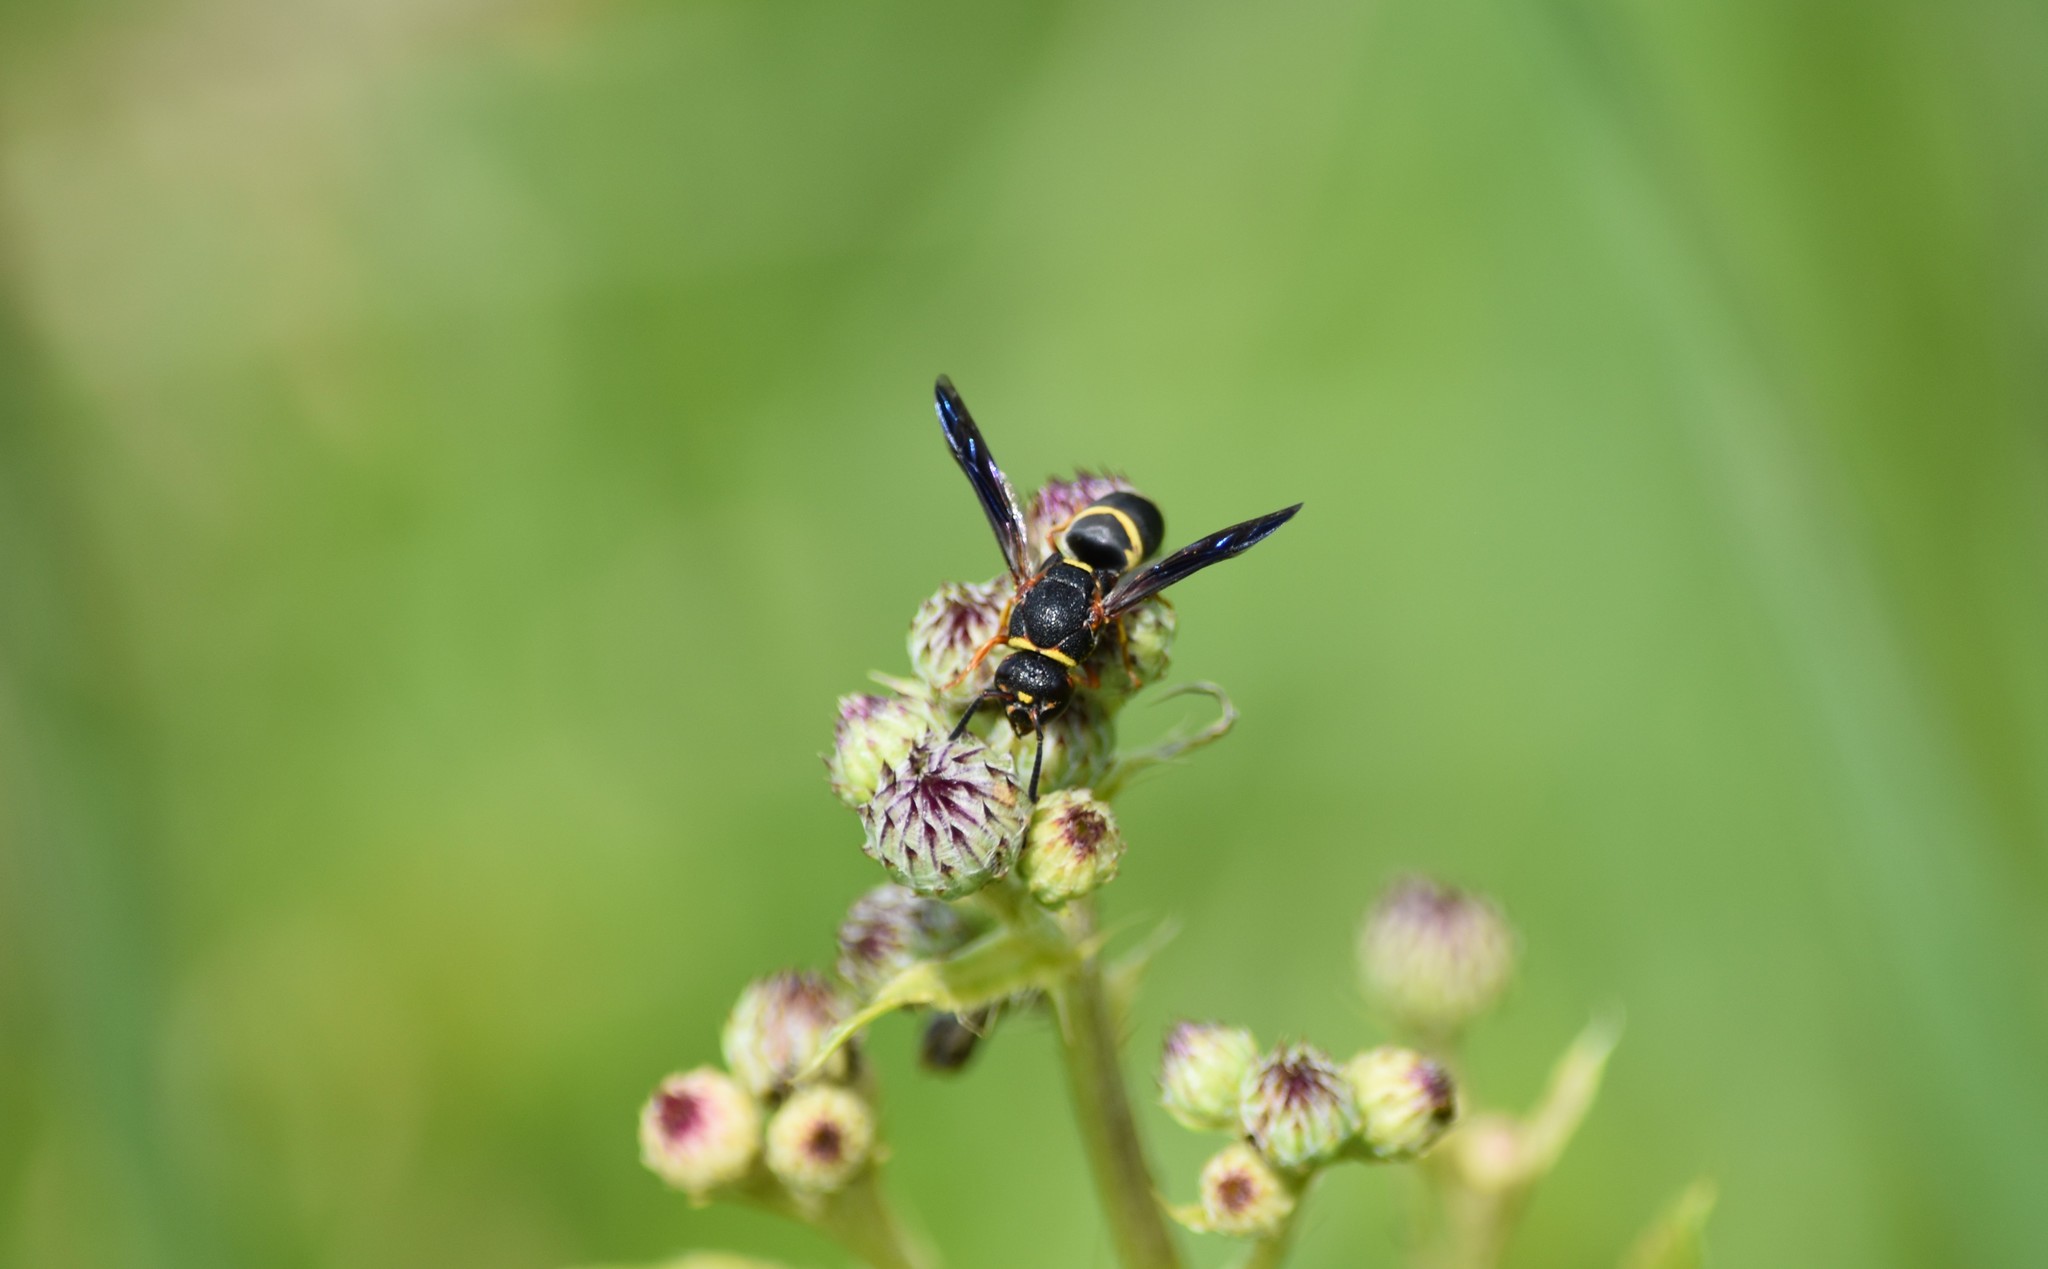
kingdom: Animalia
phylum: Arthropoda
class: Insecta
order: Hymenoptera
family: Eumenidae
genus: Euodynerus
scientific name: Euodynerus hidalgo
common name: Wasp
